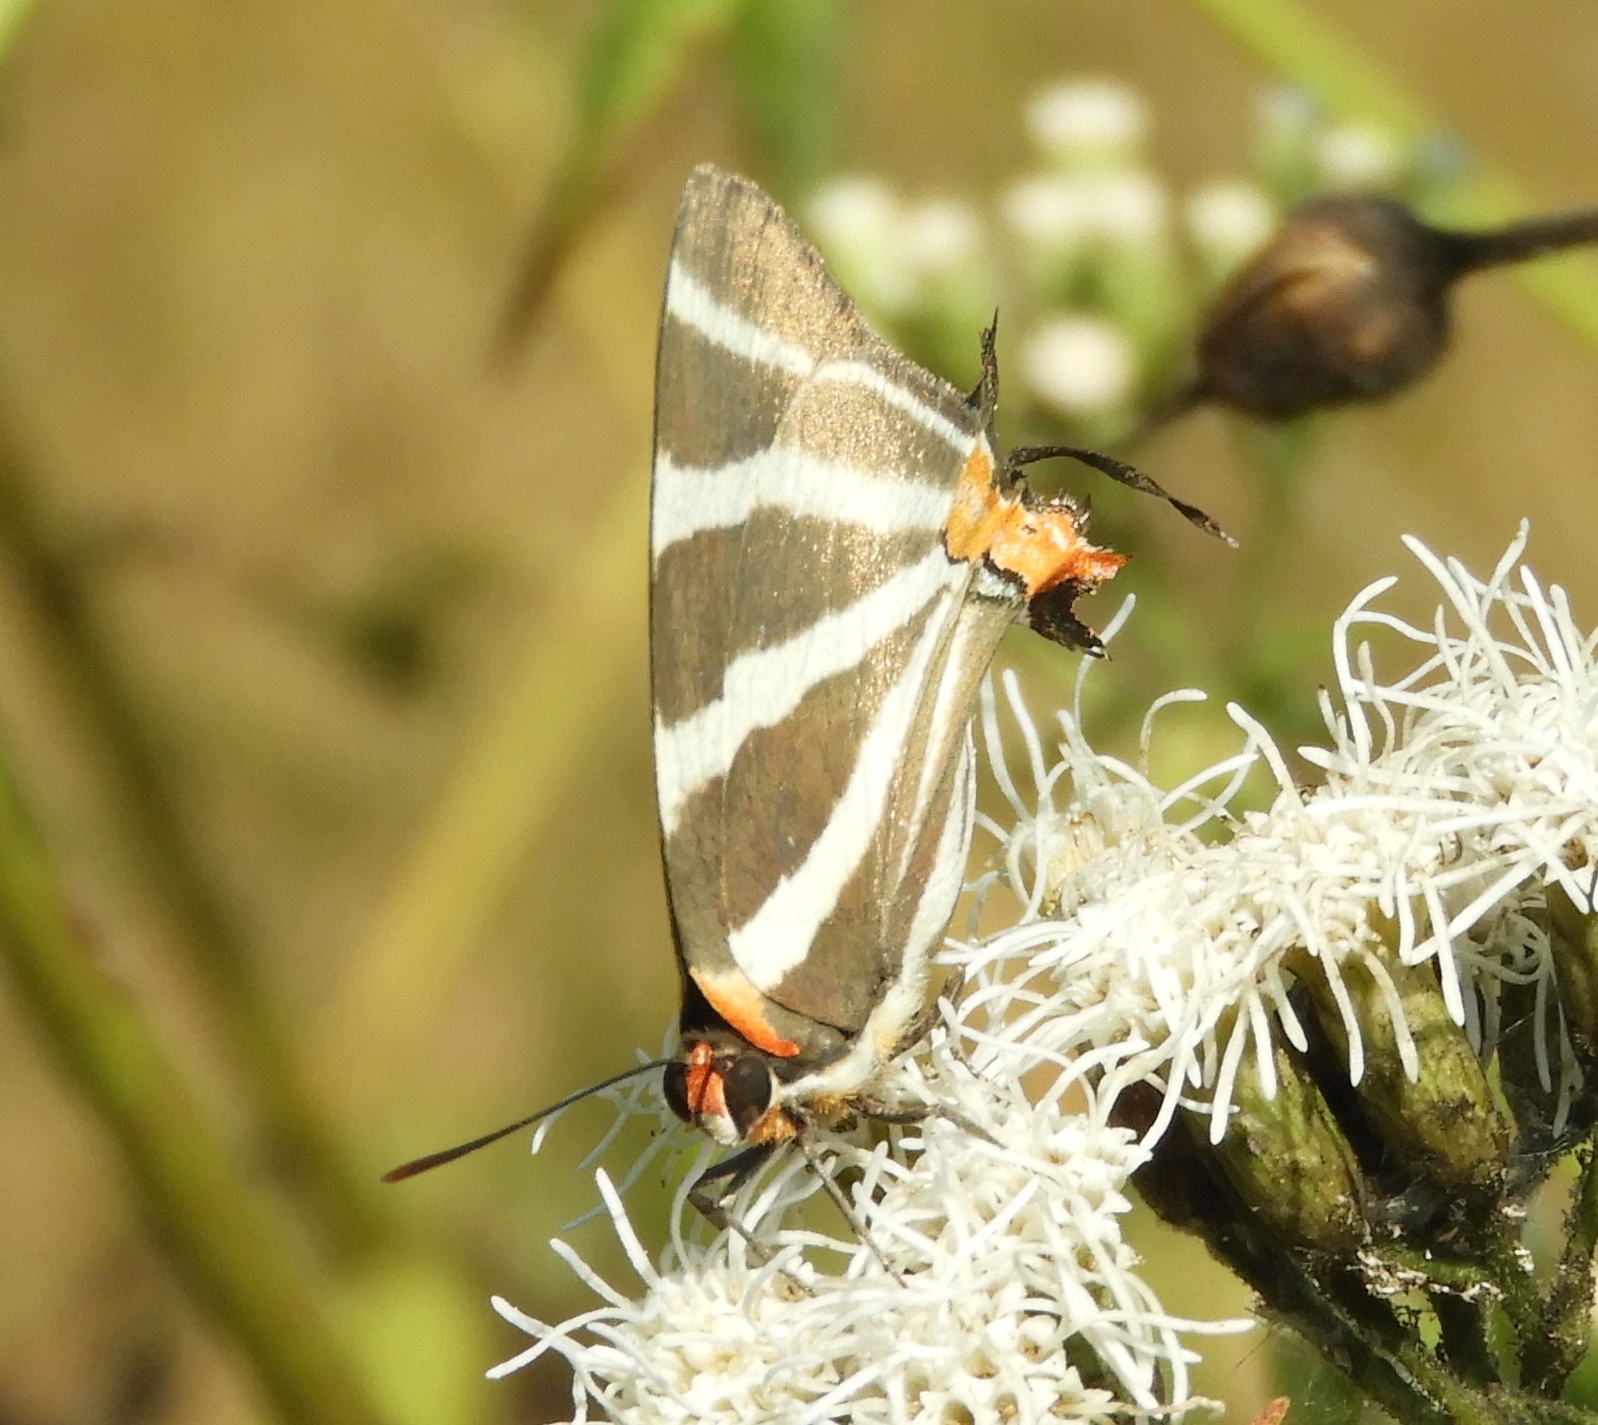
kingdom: Animalia
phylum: Arthropoda
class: Insecta
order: Lepidoptera
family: Lycaenidae
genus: Thecla
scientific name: Thecla bathildis
